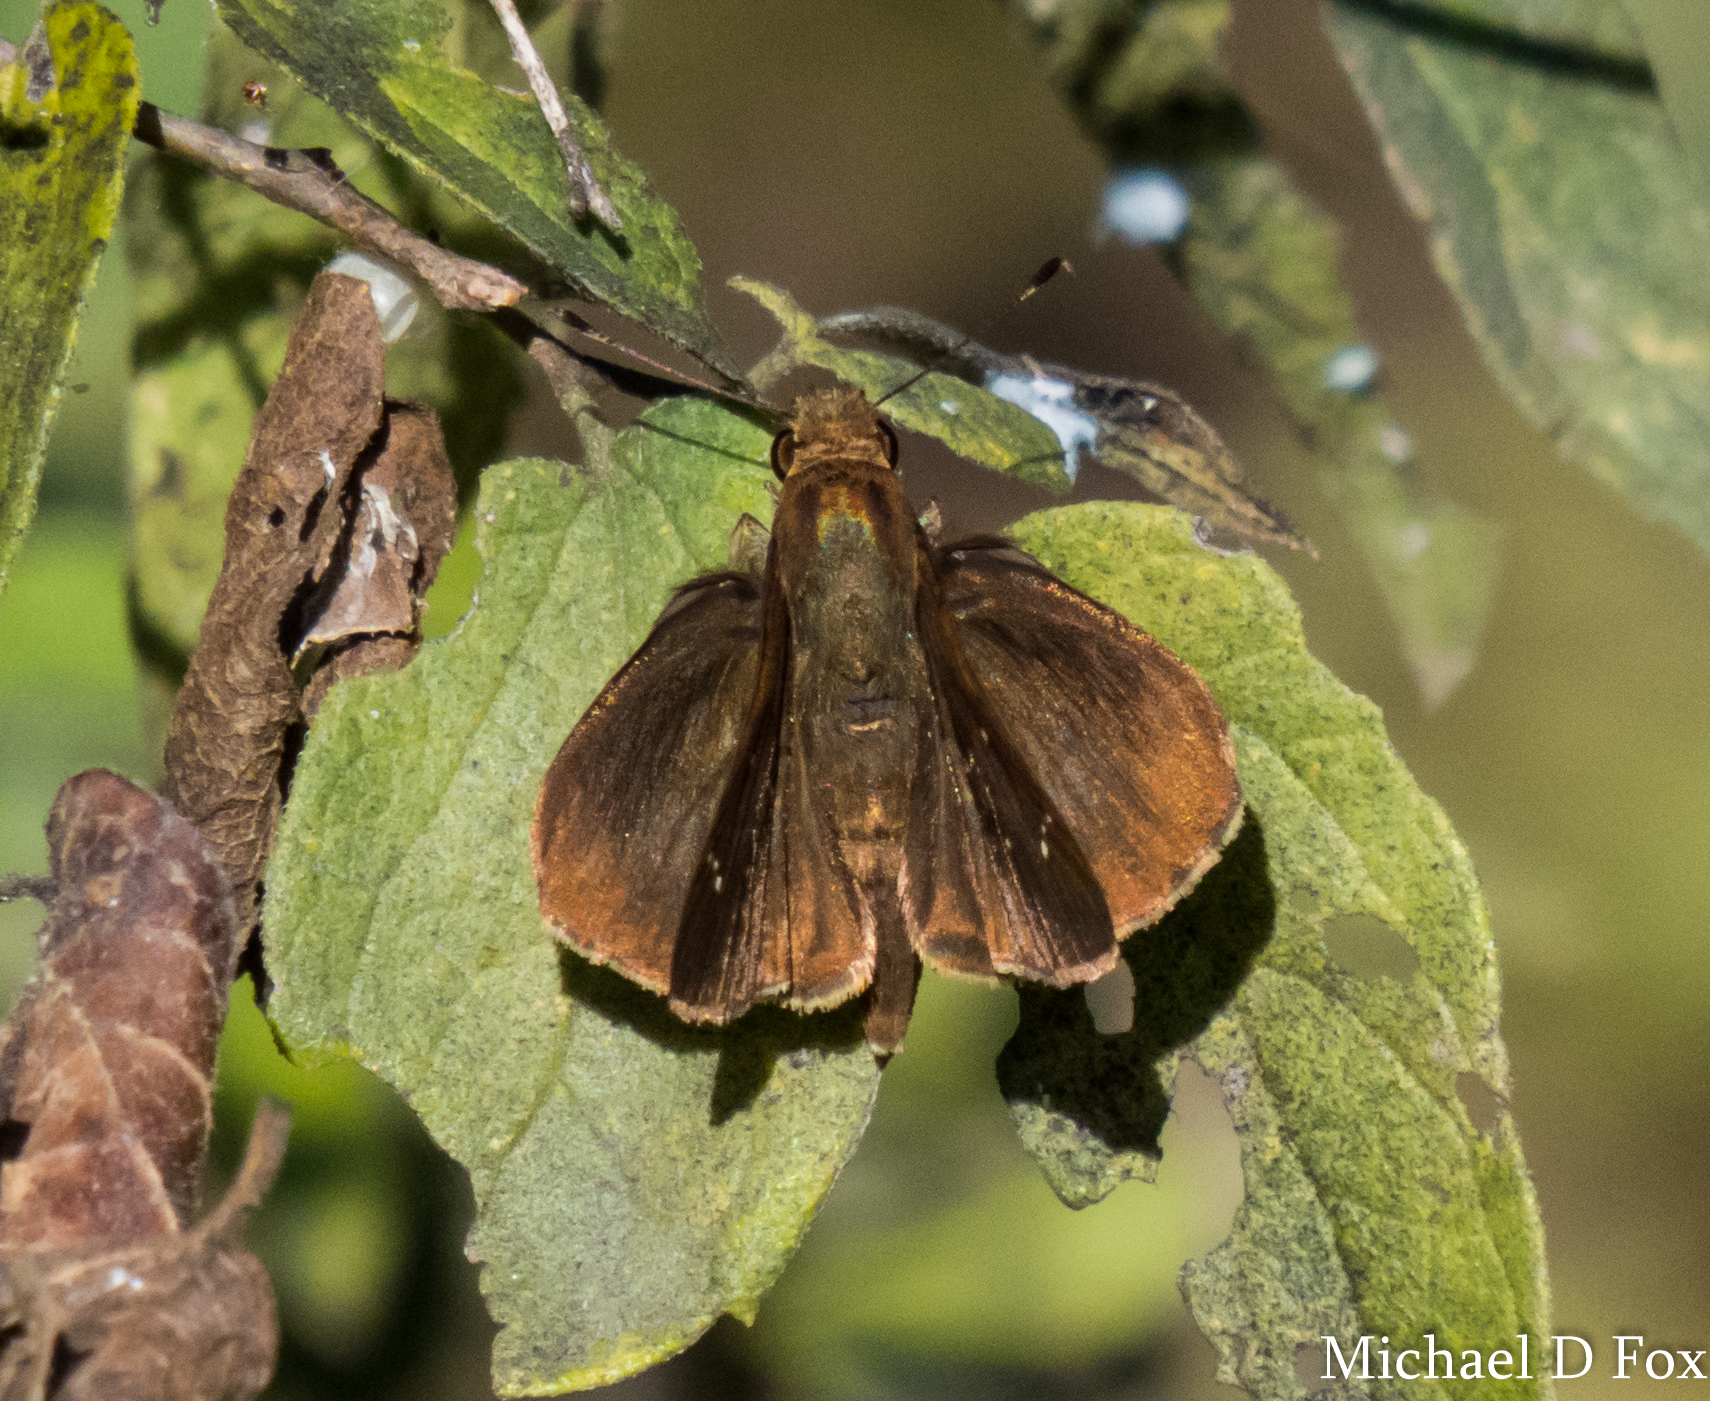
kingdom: Animalia
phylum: Arthropoda
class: Insecta
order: Lepidoptera
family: Hesperiidae
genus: Euphyes
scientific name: Euphyes vestris
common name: Dun skipper
